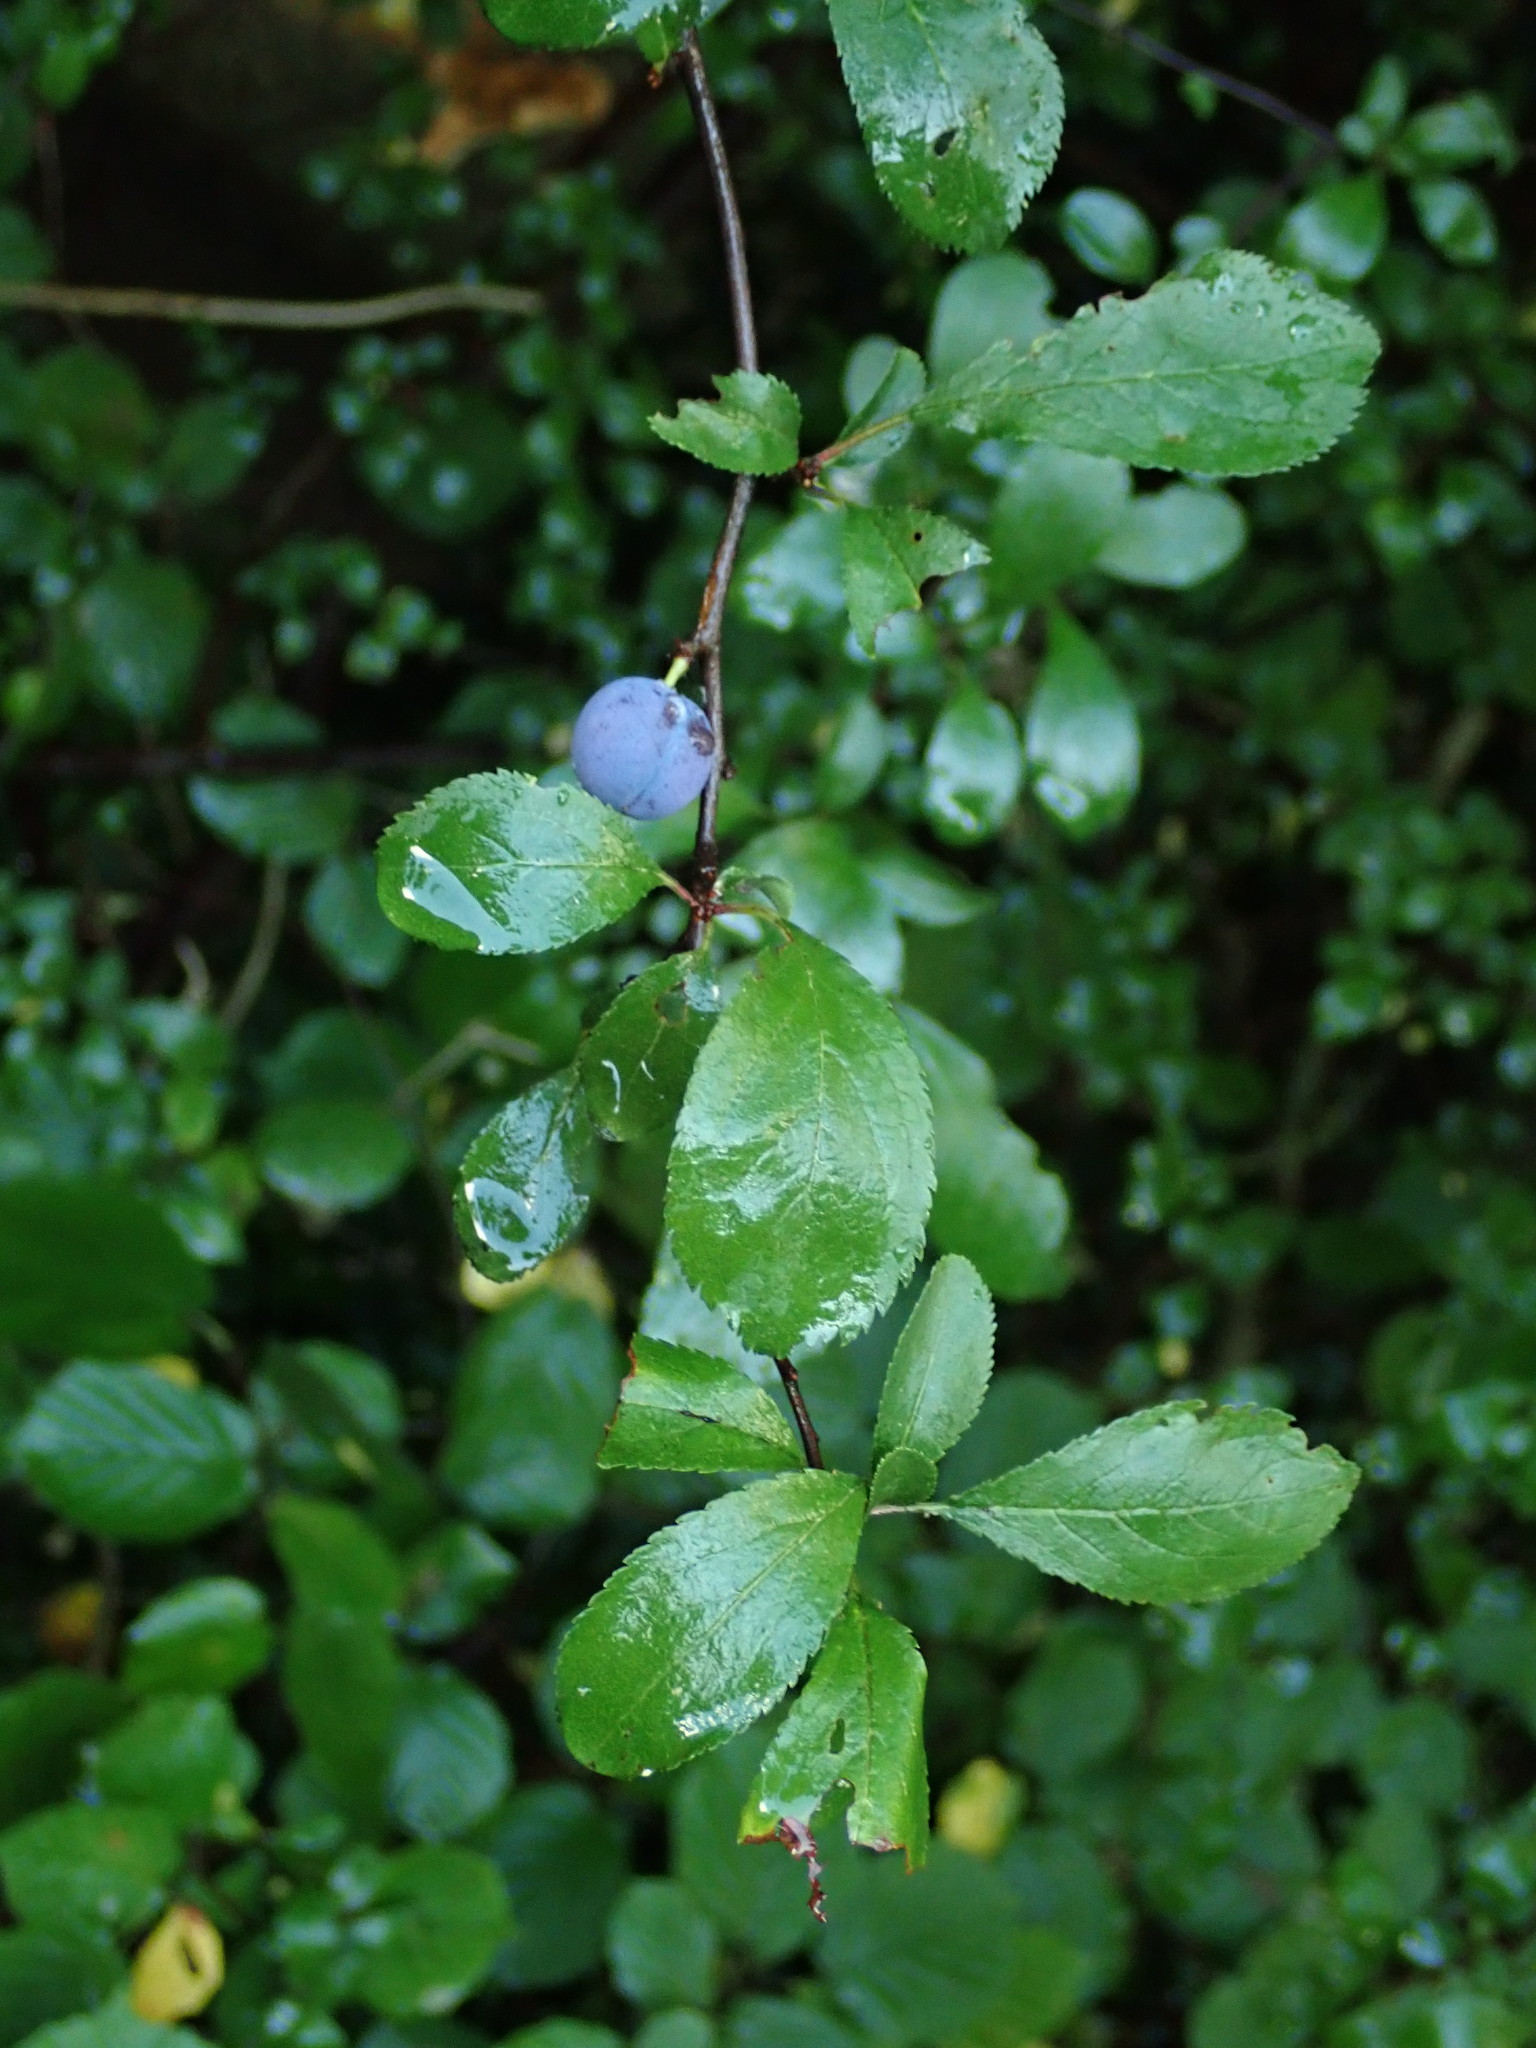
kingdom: Plantae
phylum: Tracheophyta
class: Magnoliopsida
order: Rosales
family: Rosaceae
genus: Prunus
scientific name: Prunus spinosa
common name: Blackthorn
